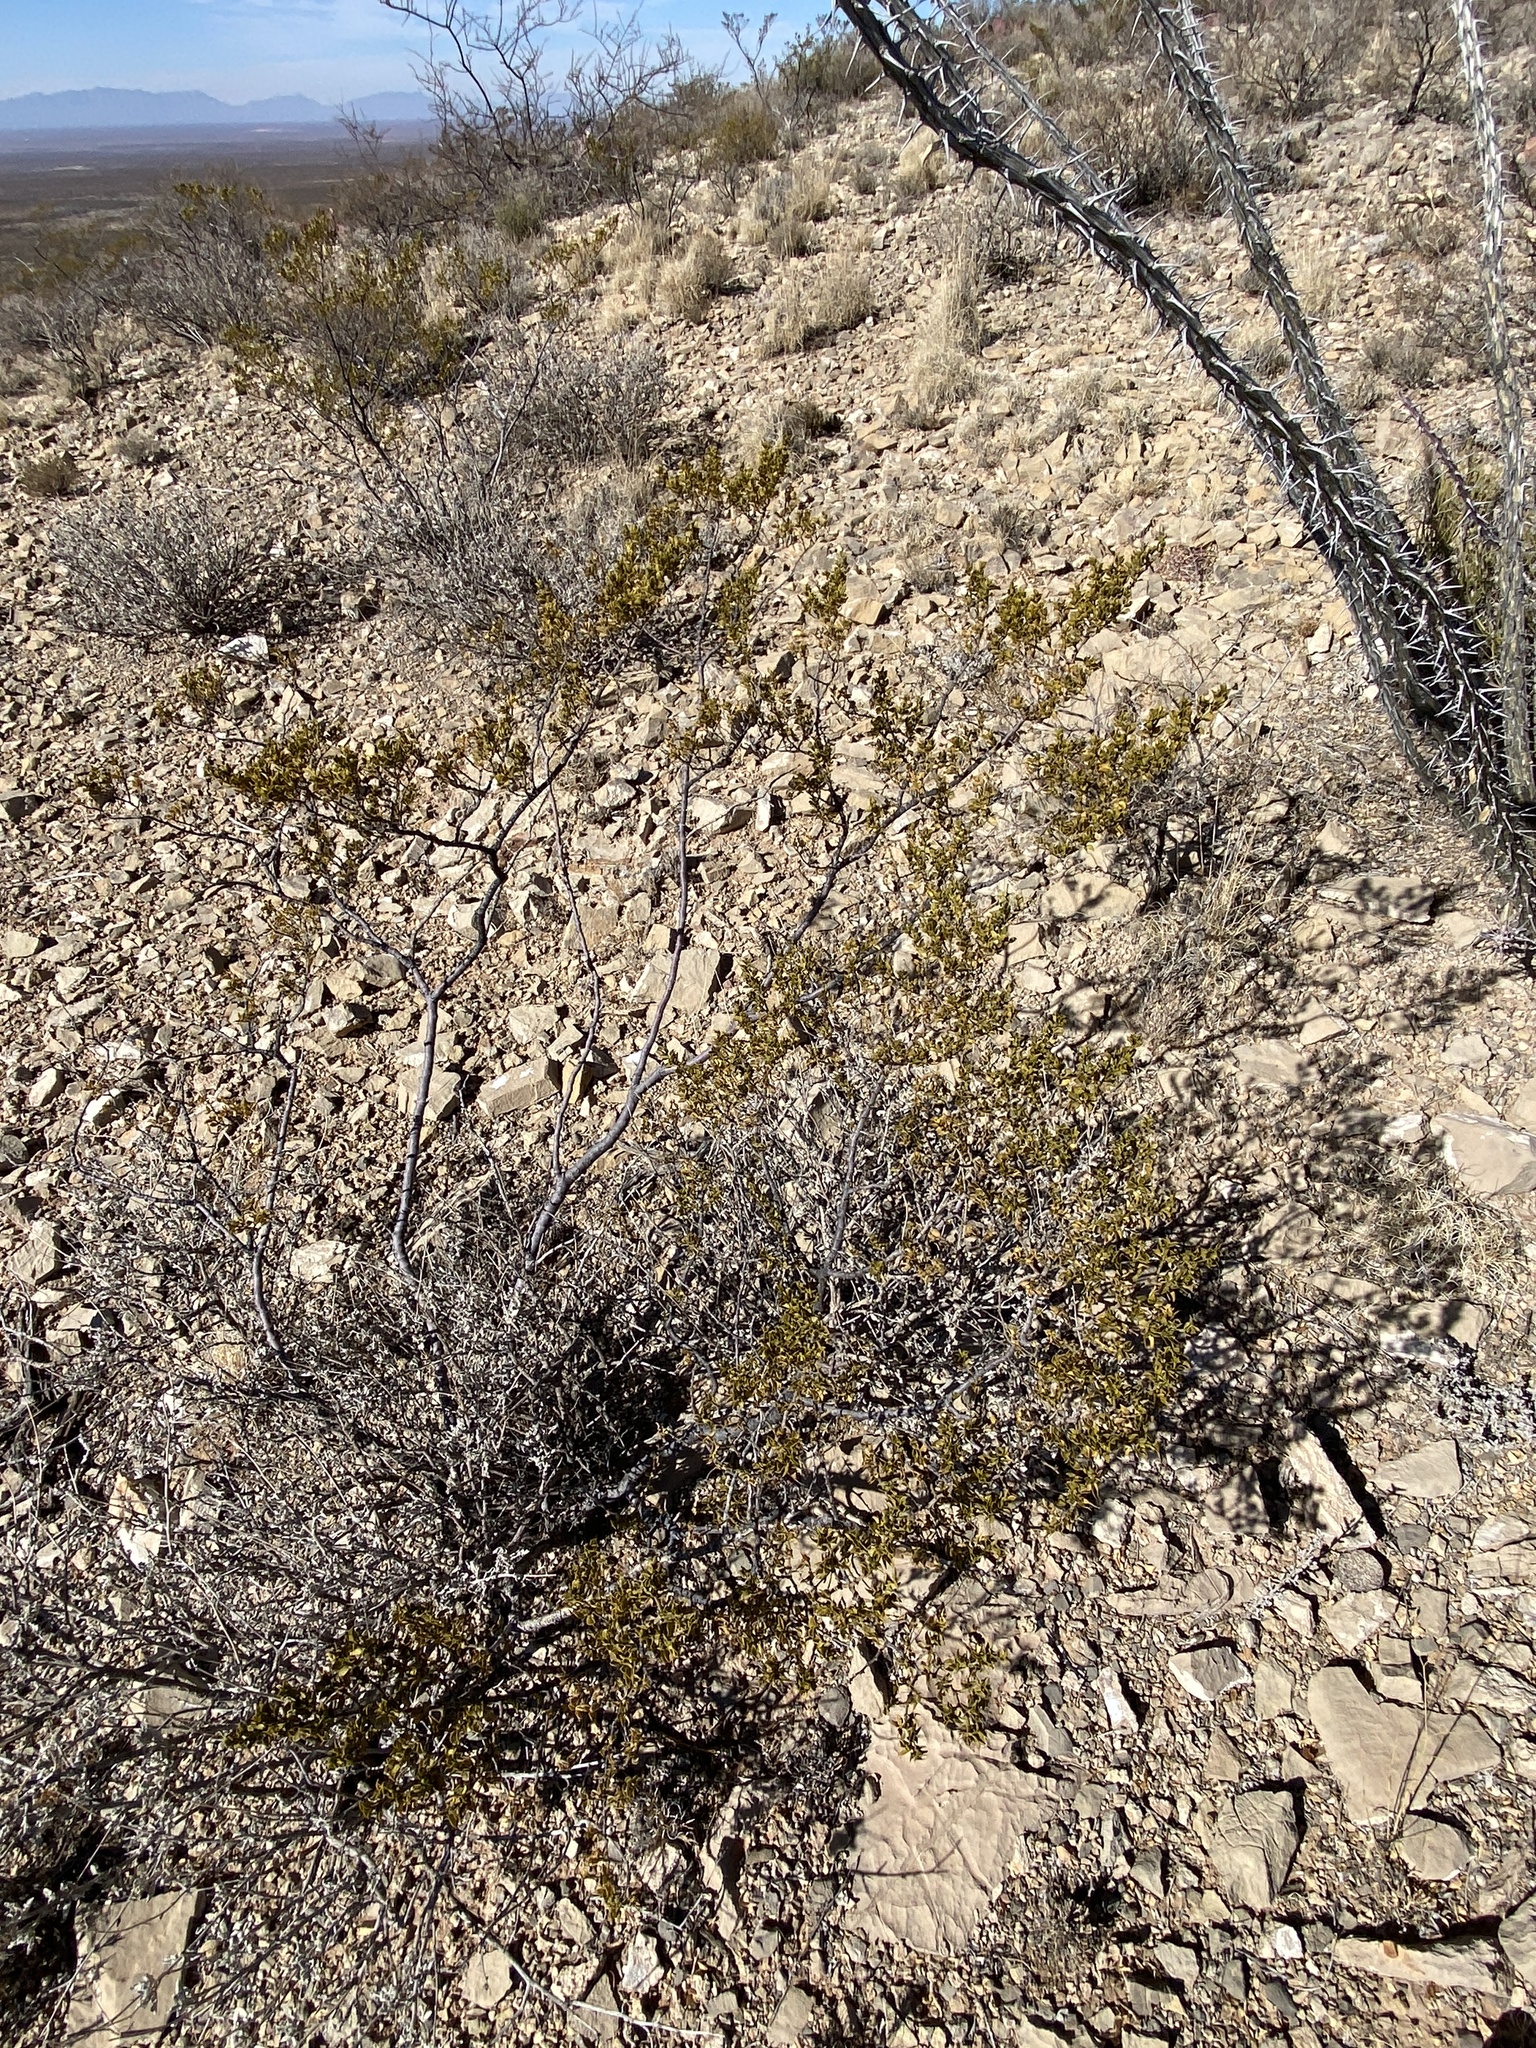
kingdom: Plantae
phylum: Tracheophyta
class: Magnoliopsida
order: Zygophyllales
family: Zygophyllaceae
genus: Larrea
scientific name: Larrea tridentata
